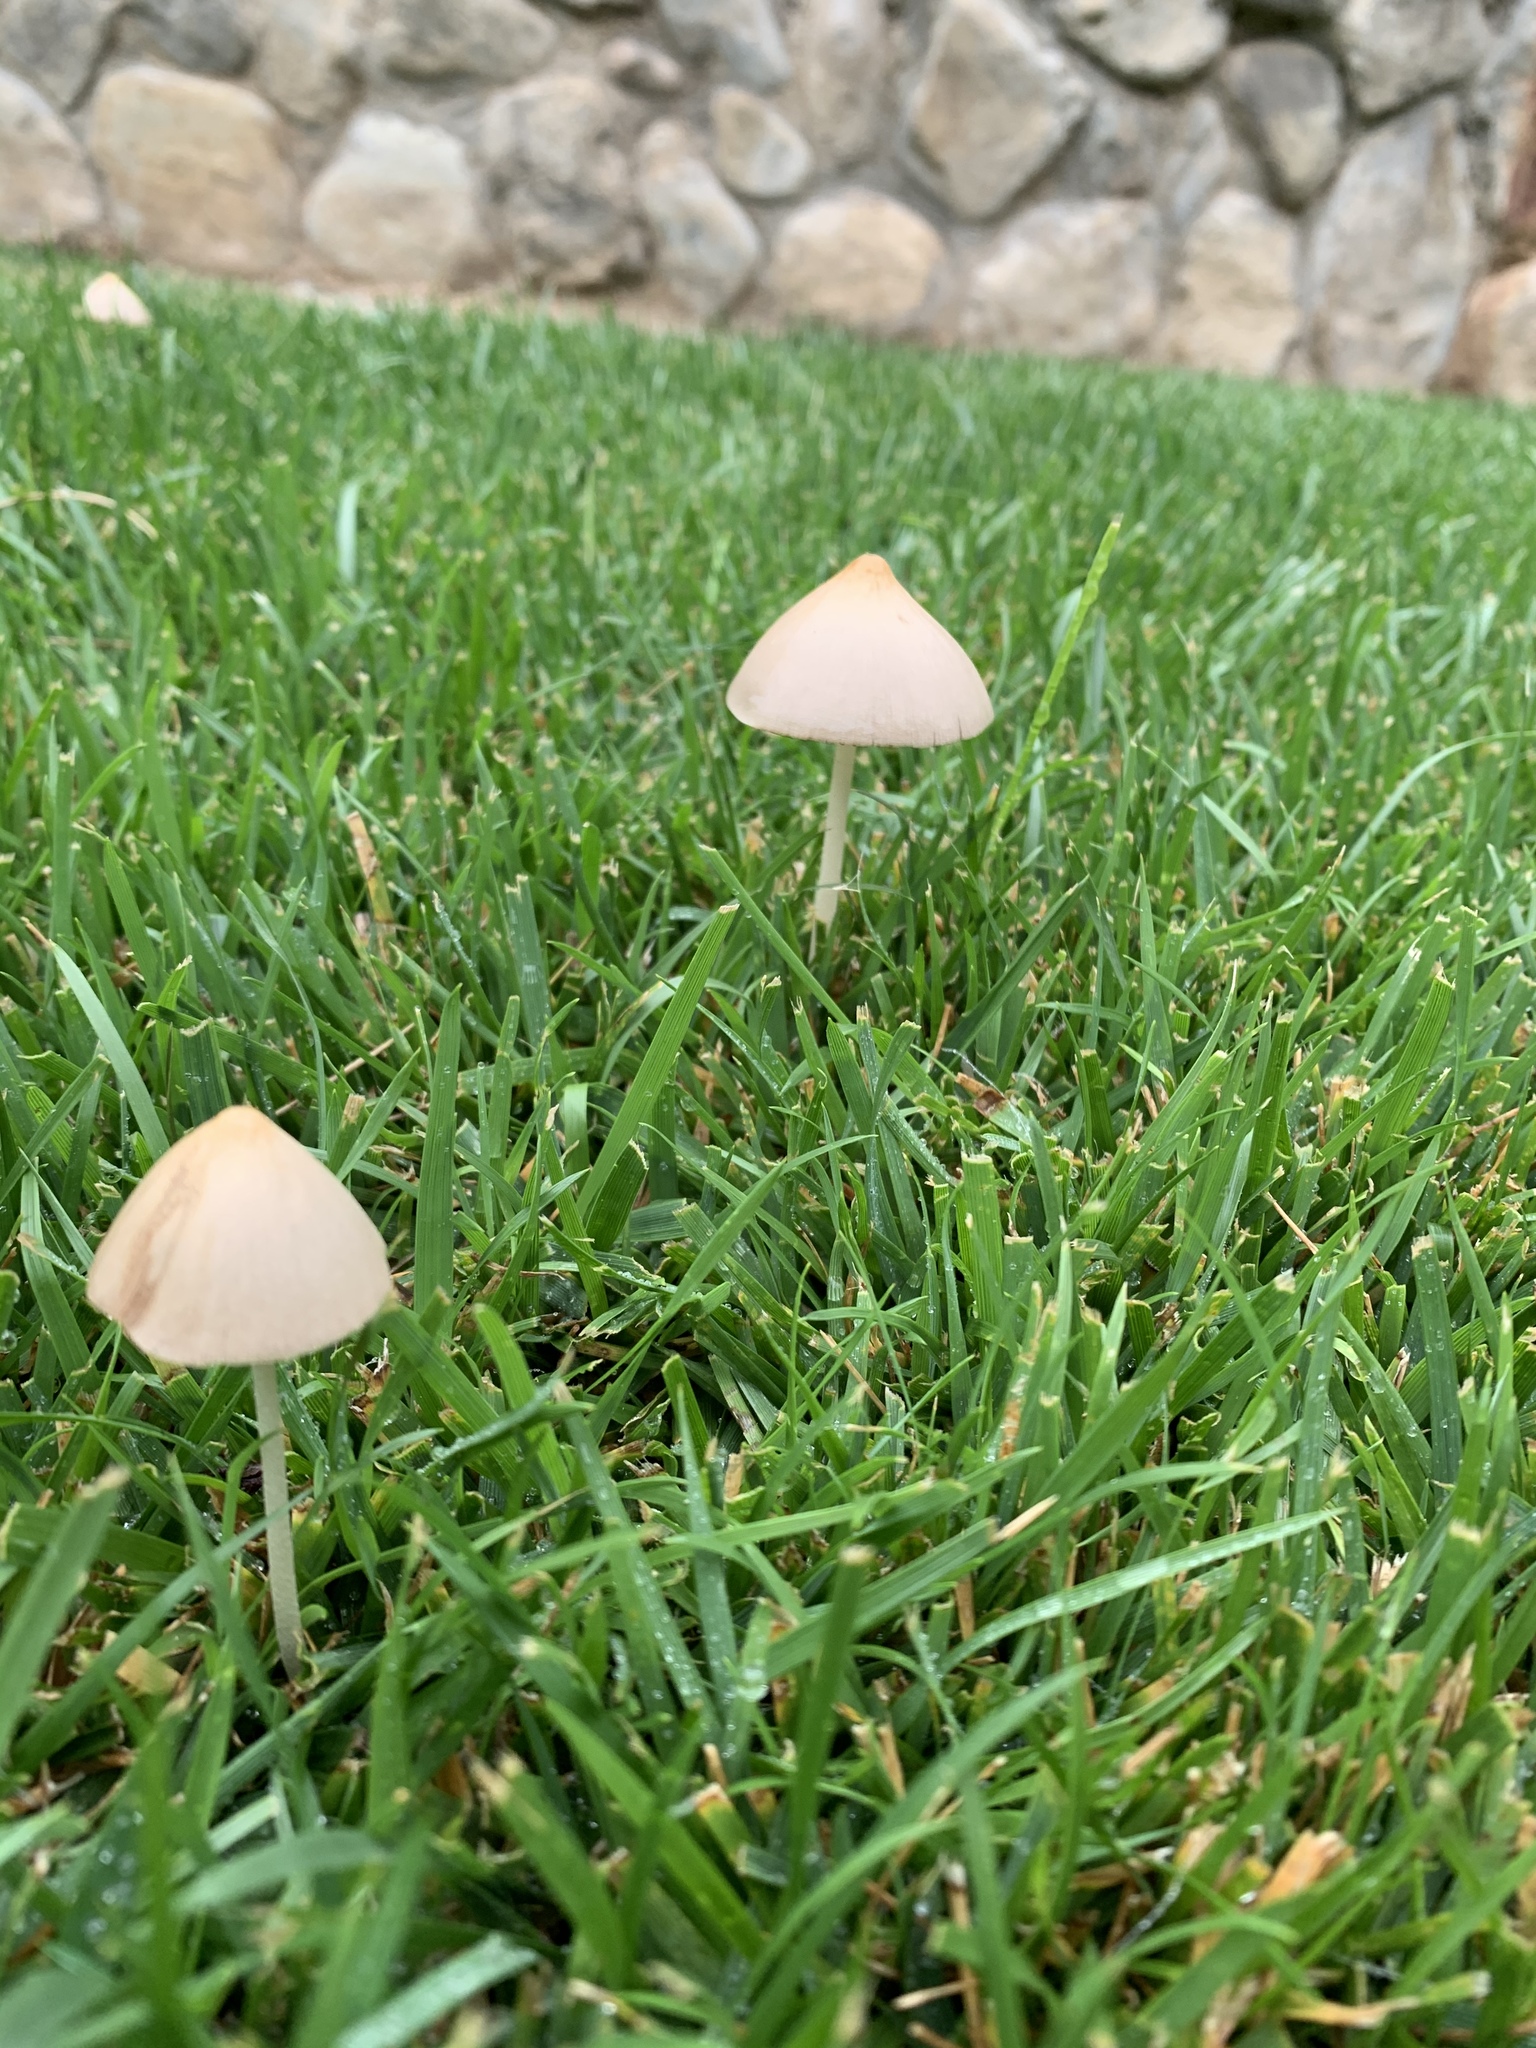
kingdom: Fungi
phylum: Basidiomycota
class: Agaricomycetes
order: Agaricales
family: Bolbitiaceae
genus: Conocybe
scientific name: Conocybe apala
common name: Milky conecap
